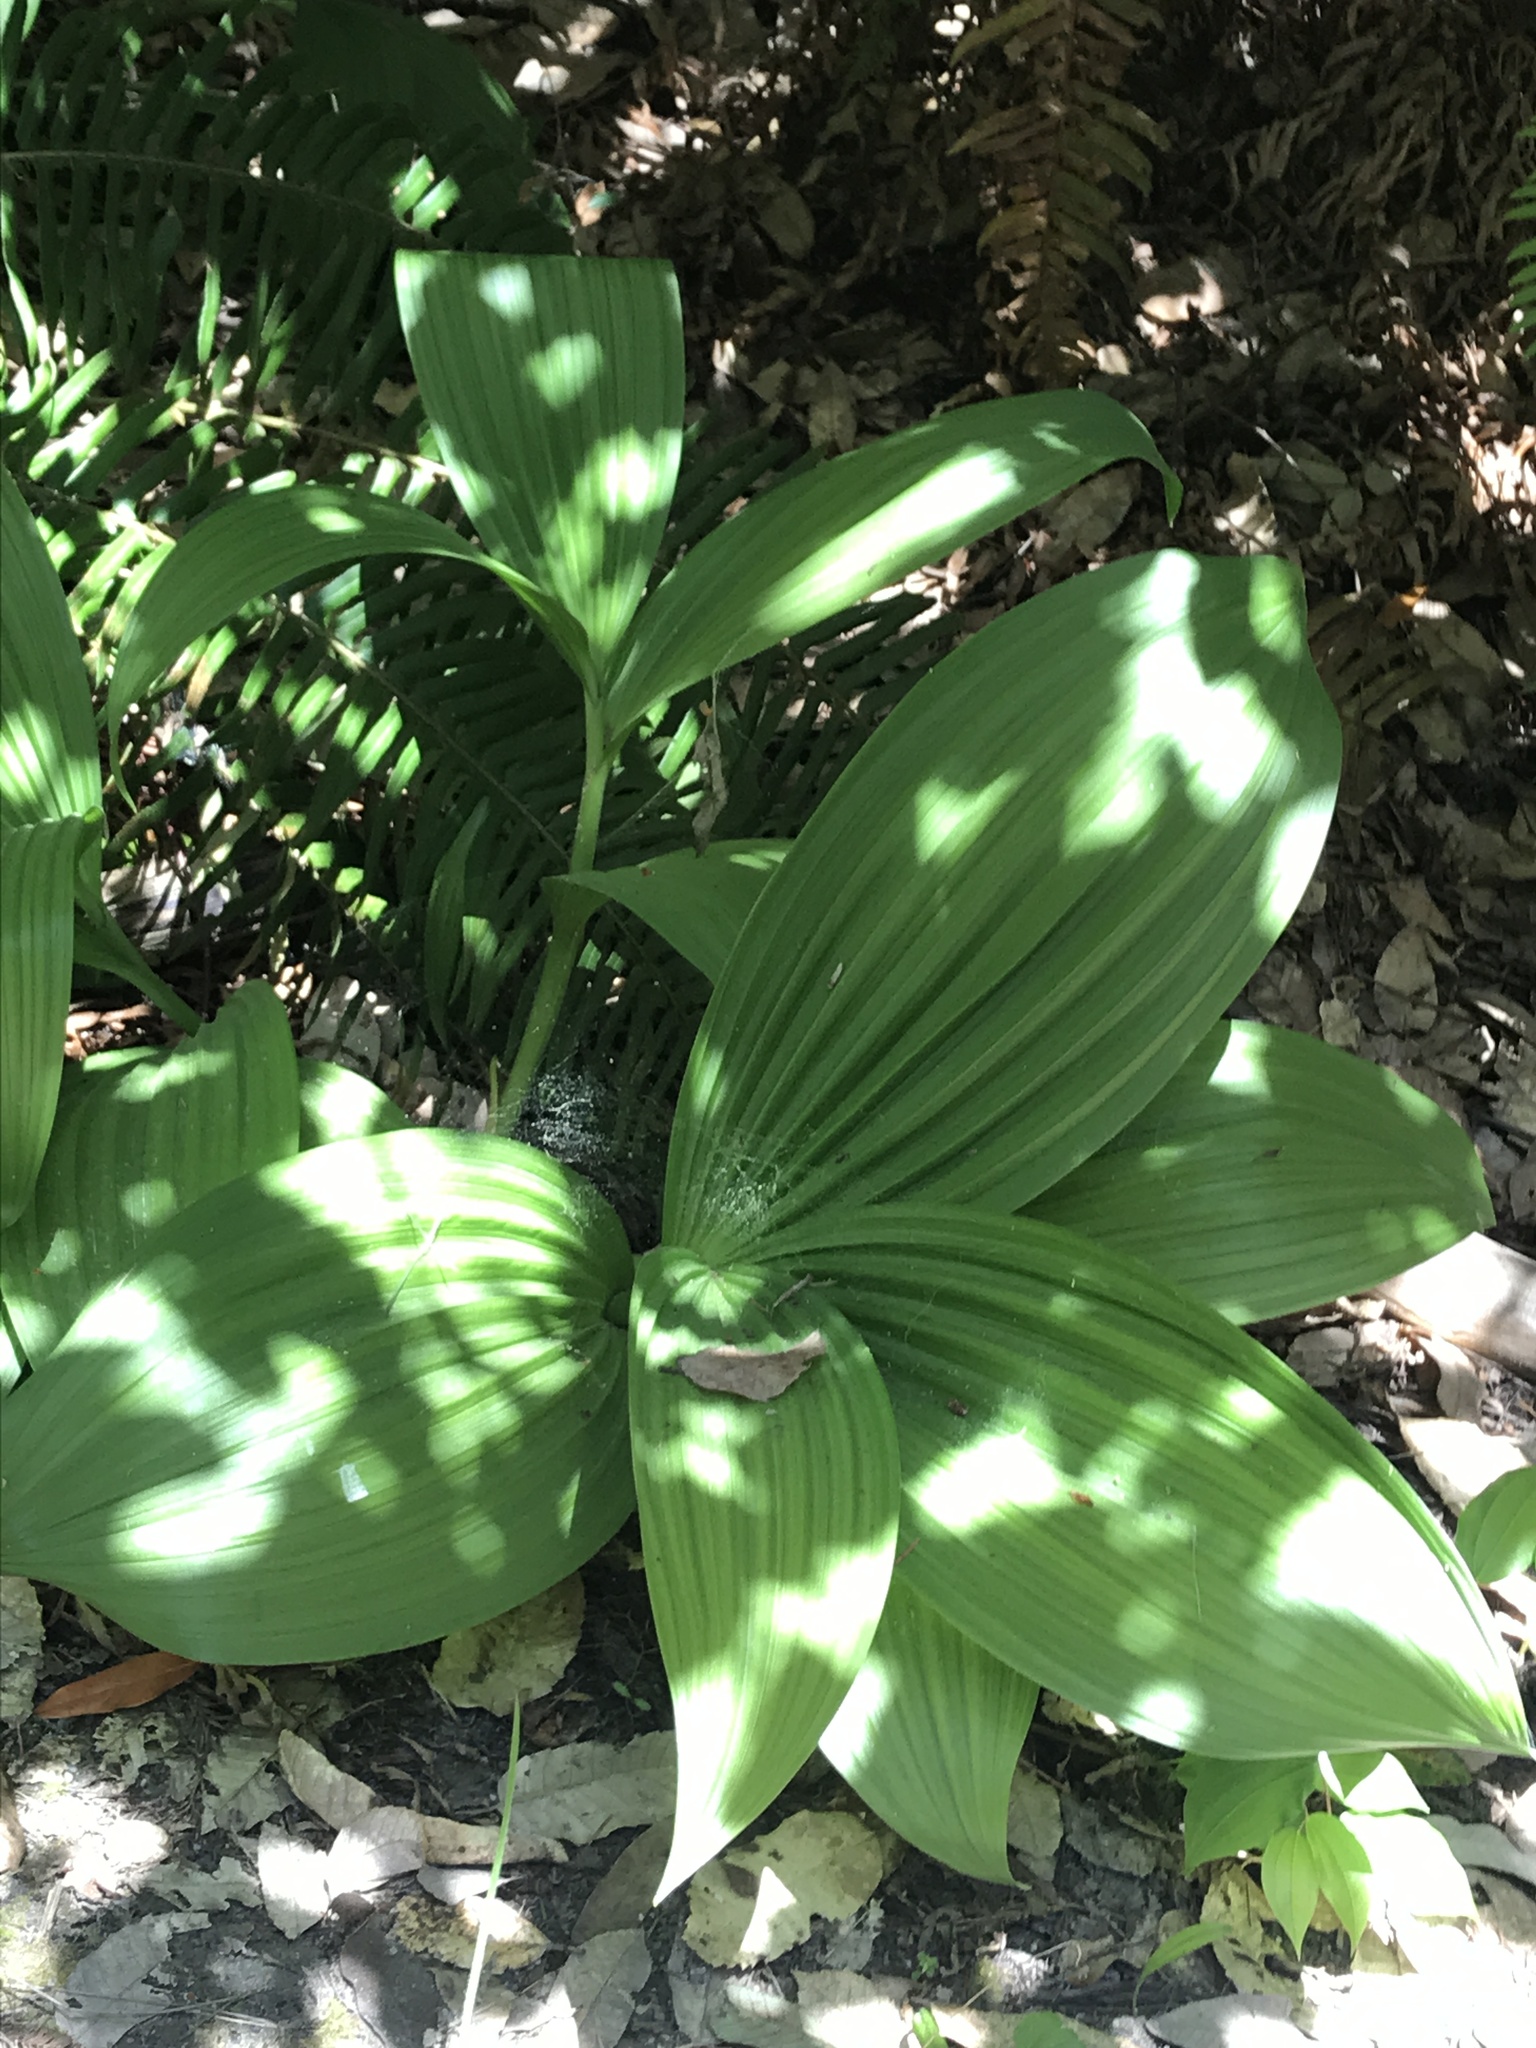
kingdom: Plantae
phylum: Tracheophyta
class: Liliopsida
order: Liliales
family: Melanthiaceae
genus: Veratrum
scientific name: Veratrum fimbriatum
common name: Fringe false hellobore
